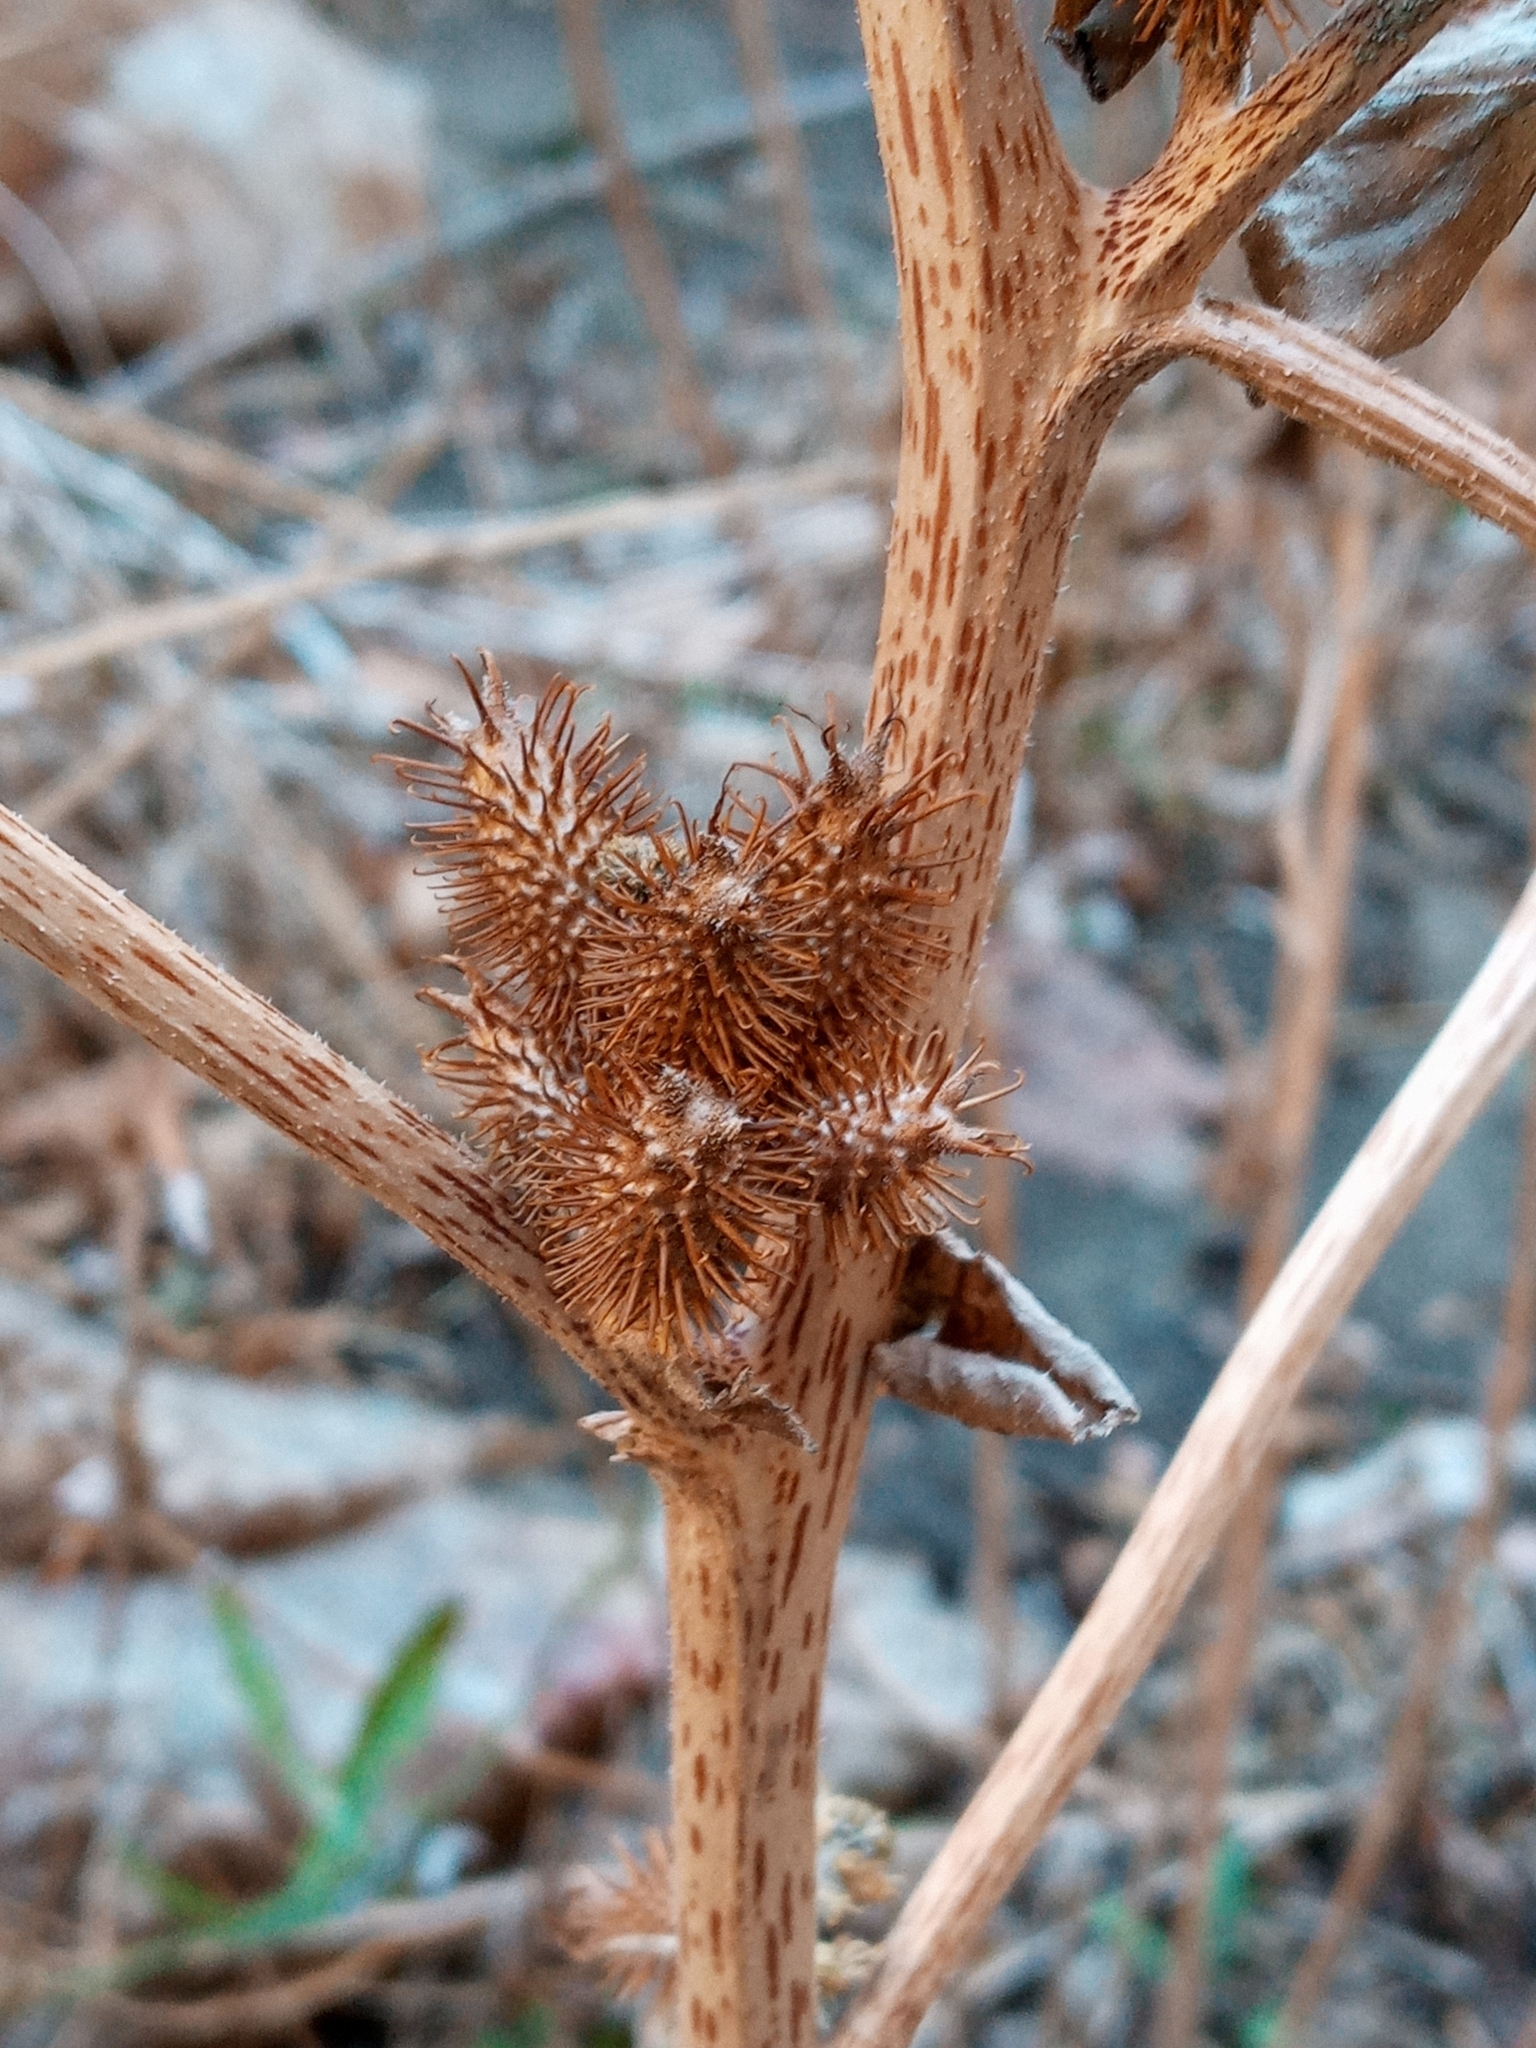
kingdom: Plantae
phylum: Tracheophyta
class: Magnoliopsida
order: Asterales
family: Asteraceae
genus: Xanthium
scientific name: Xanthium strumarium
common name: Rough cocklebur
